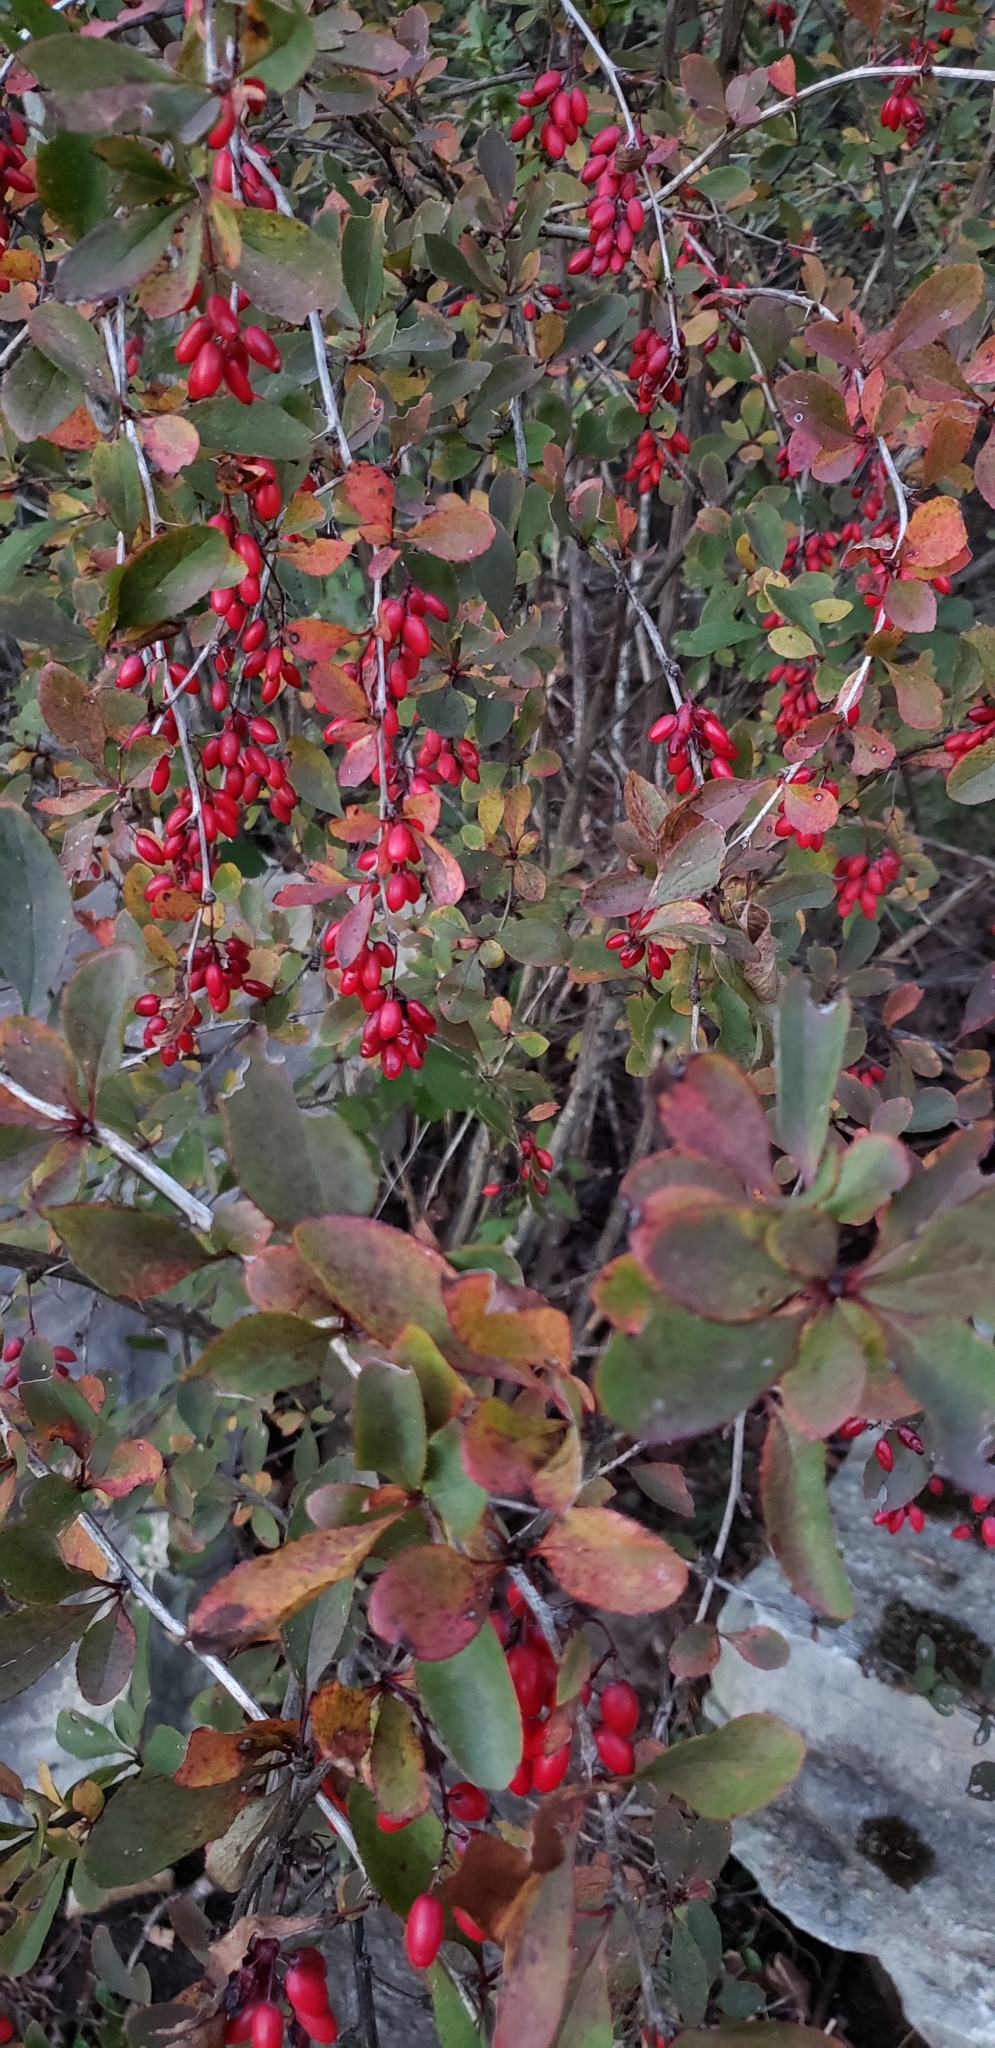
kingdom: Plantae
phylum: Tracheophyta
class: Magnoliopsida
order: Ranunculales
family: Berberidaceae
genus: Berberis
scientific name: Berberis vulgaris
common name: Barberry
